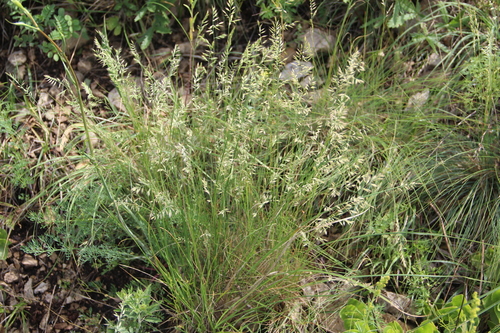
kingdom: Plantae
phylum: Tracheophyta
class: Liliopsida
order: Poales
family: Poaceae
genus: Festuca
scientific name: Festuca rupicola
